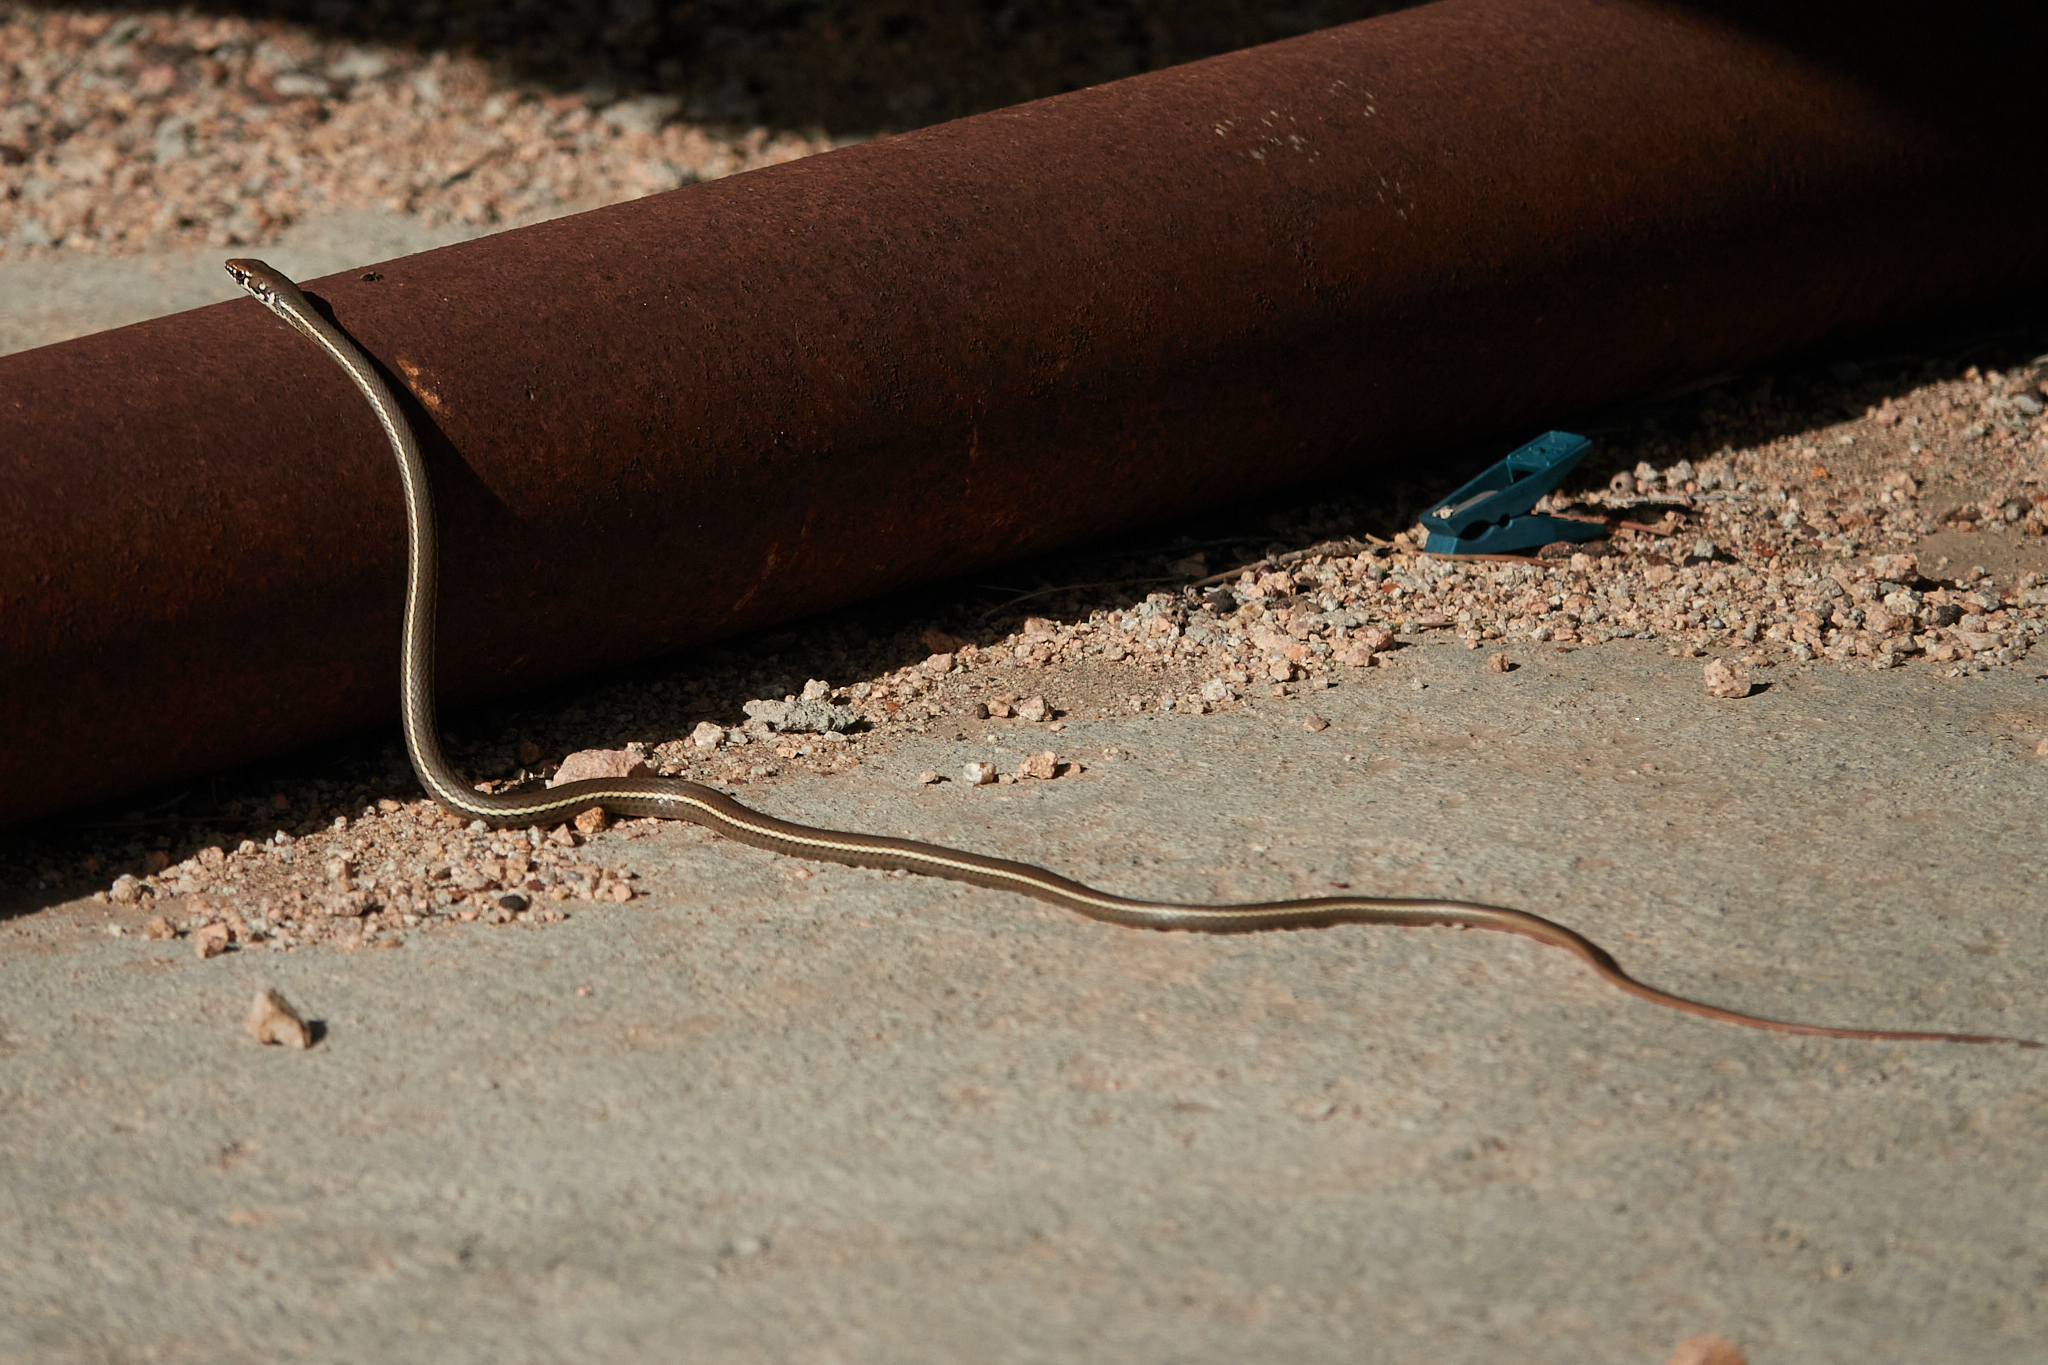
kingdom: Animalia
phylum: Chordata
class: Squamata
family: Colubridae
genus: Masticophis
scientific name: Masticophis lateralis
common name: Striped racer
